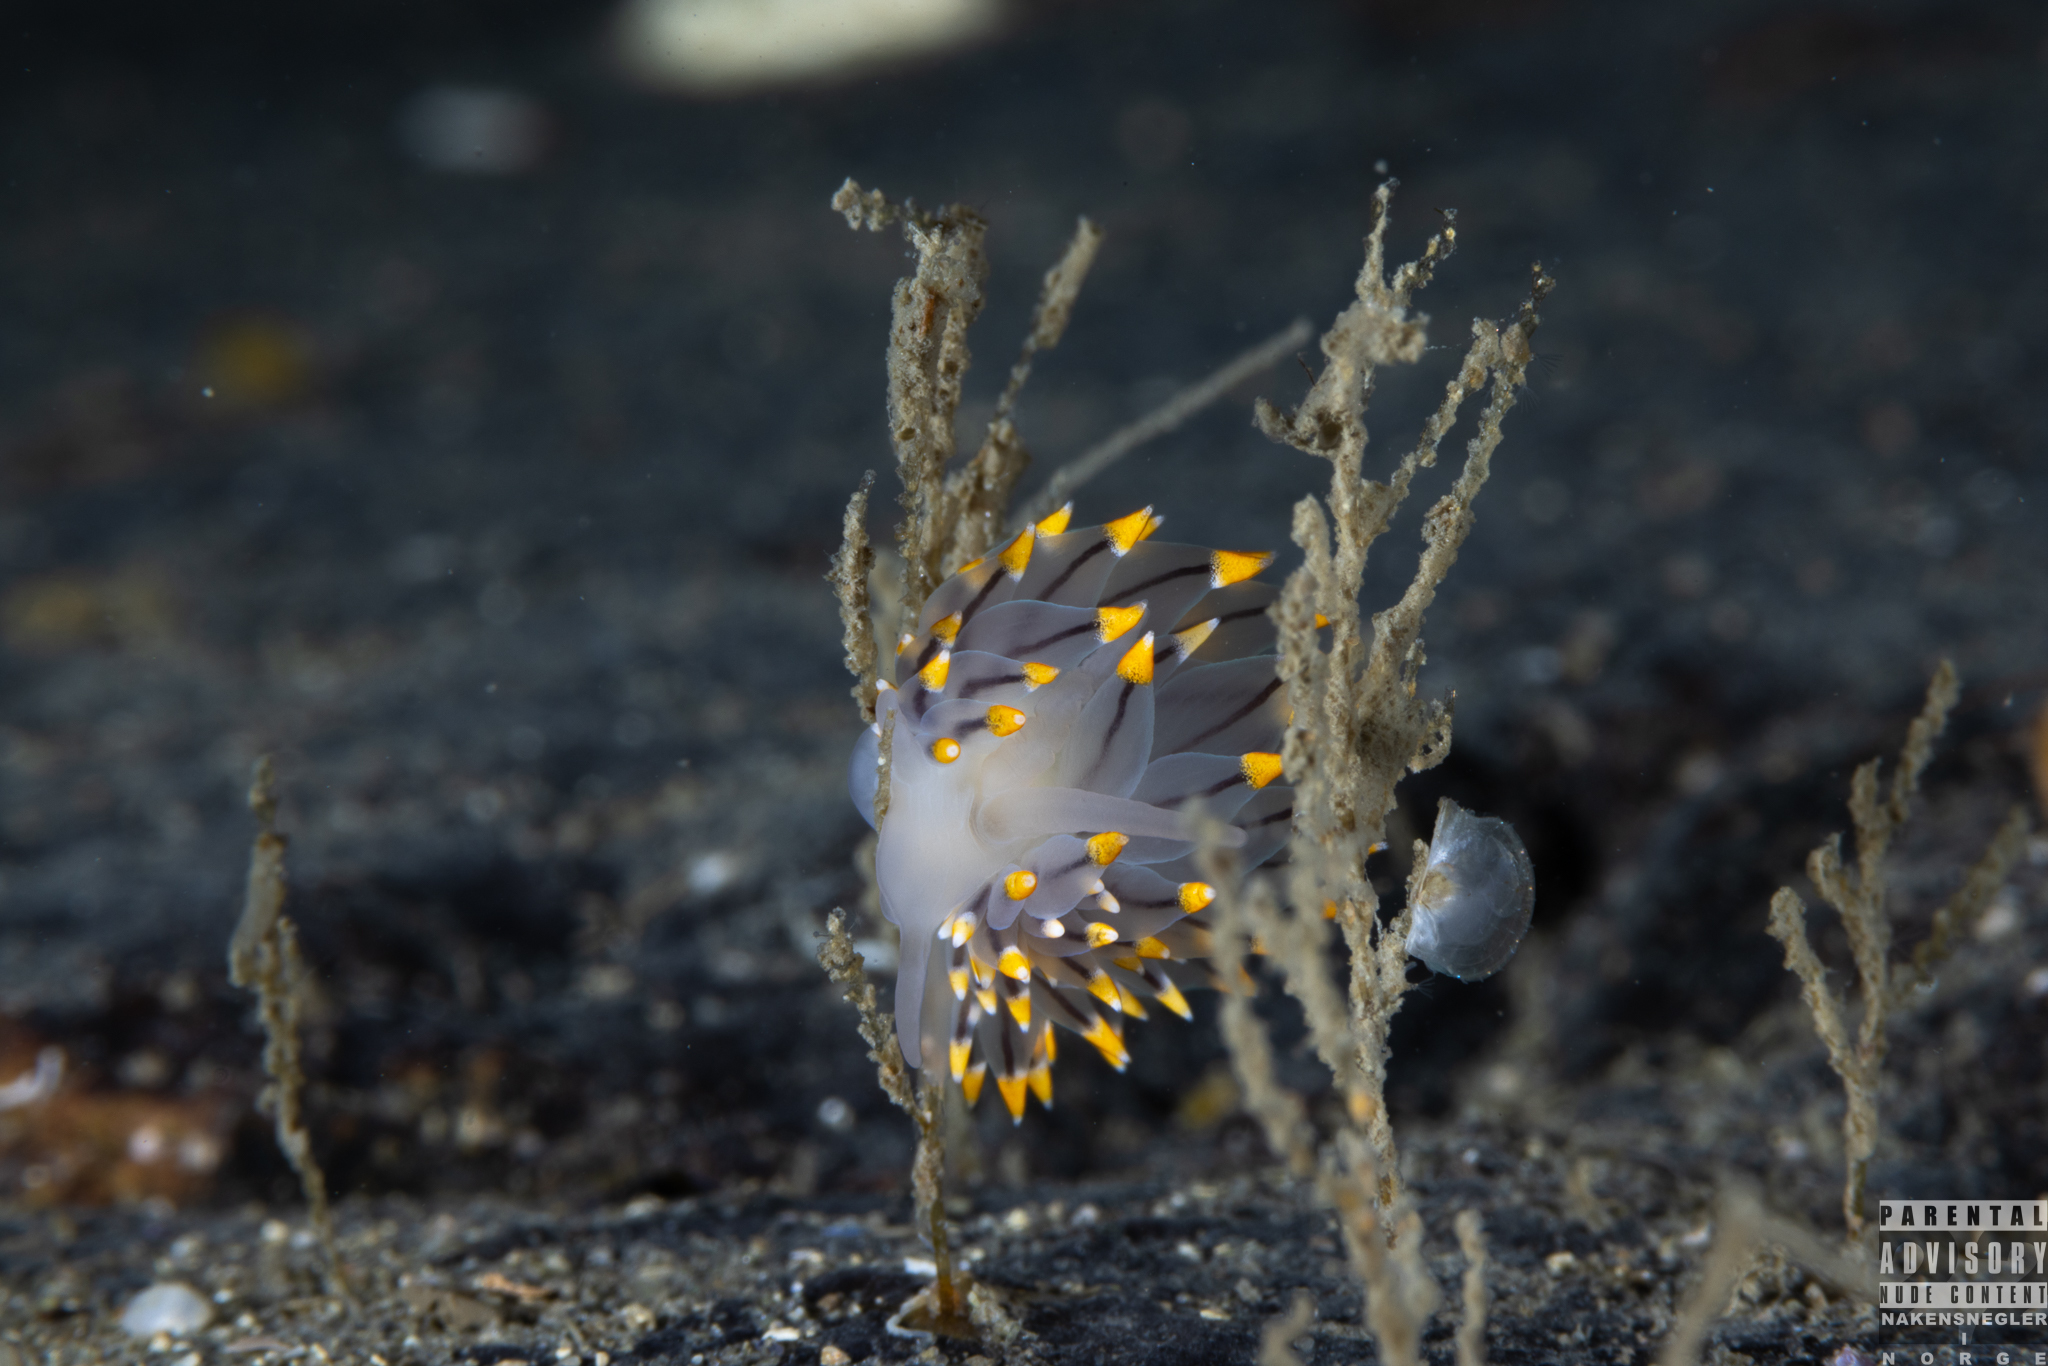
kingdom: Animalia
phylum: Mollusca
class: Gastropoda
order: Nudibranchia
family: Eubranchidae
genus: Eubranchus
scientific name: Eubranchus tricolor
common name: Painted balloon aeolis
